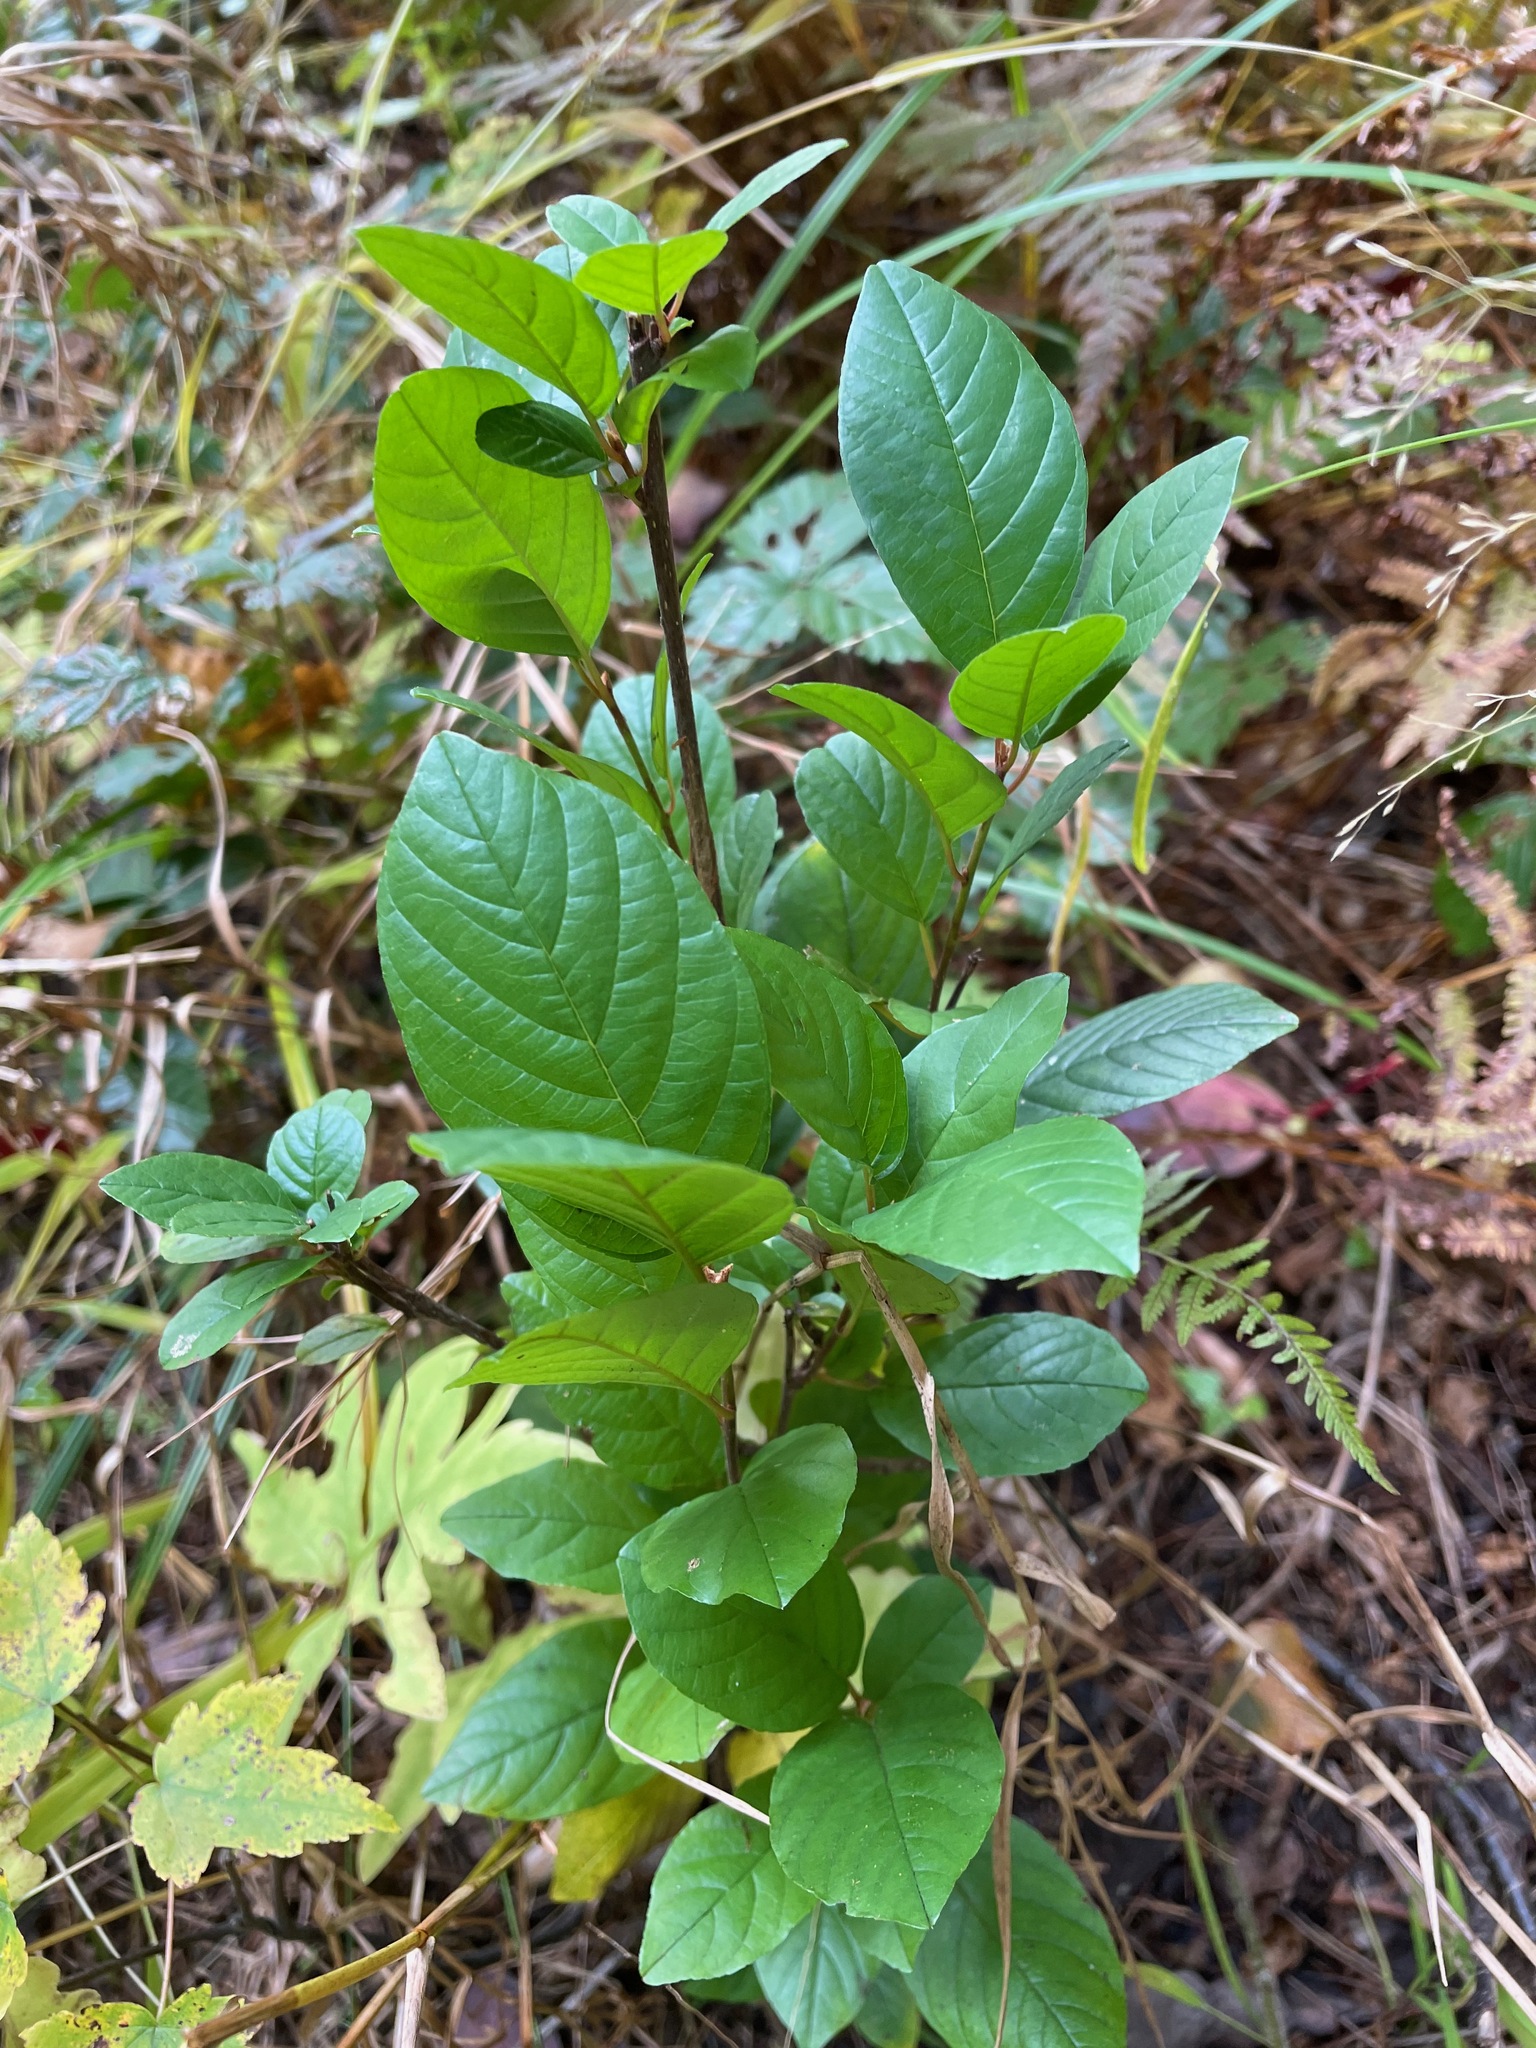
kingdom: Plantae
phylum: Tracheophyta
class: Magnoliopsida
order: Rosales
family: Rhamnaceae
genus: Frangula
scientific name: Frangula alnus
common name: Alder buckthorn
